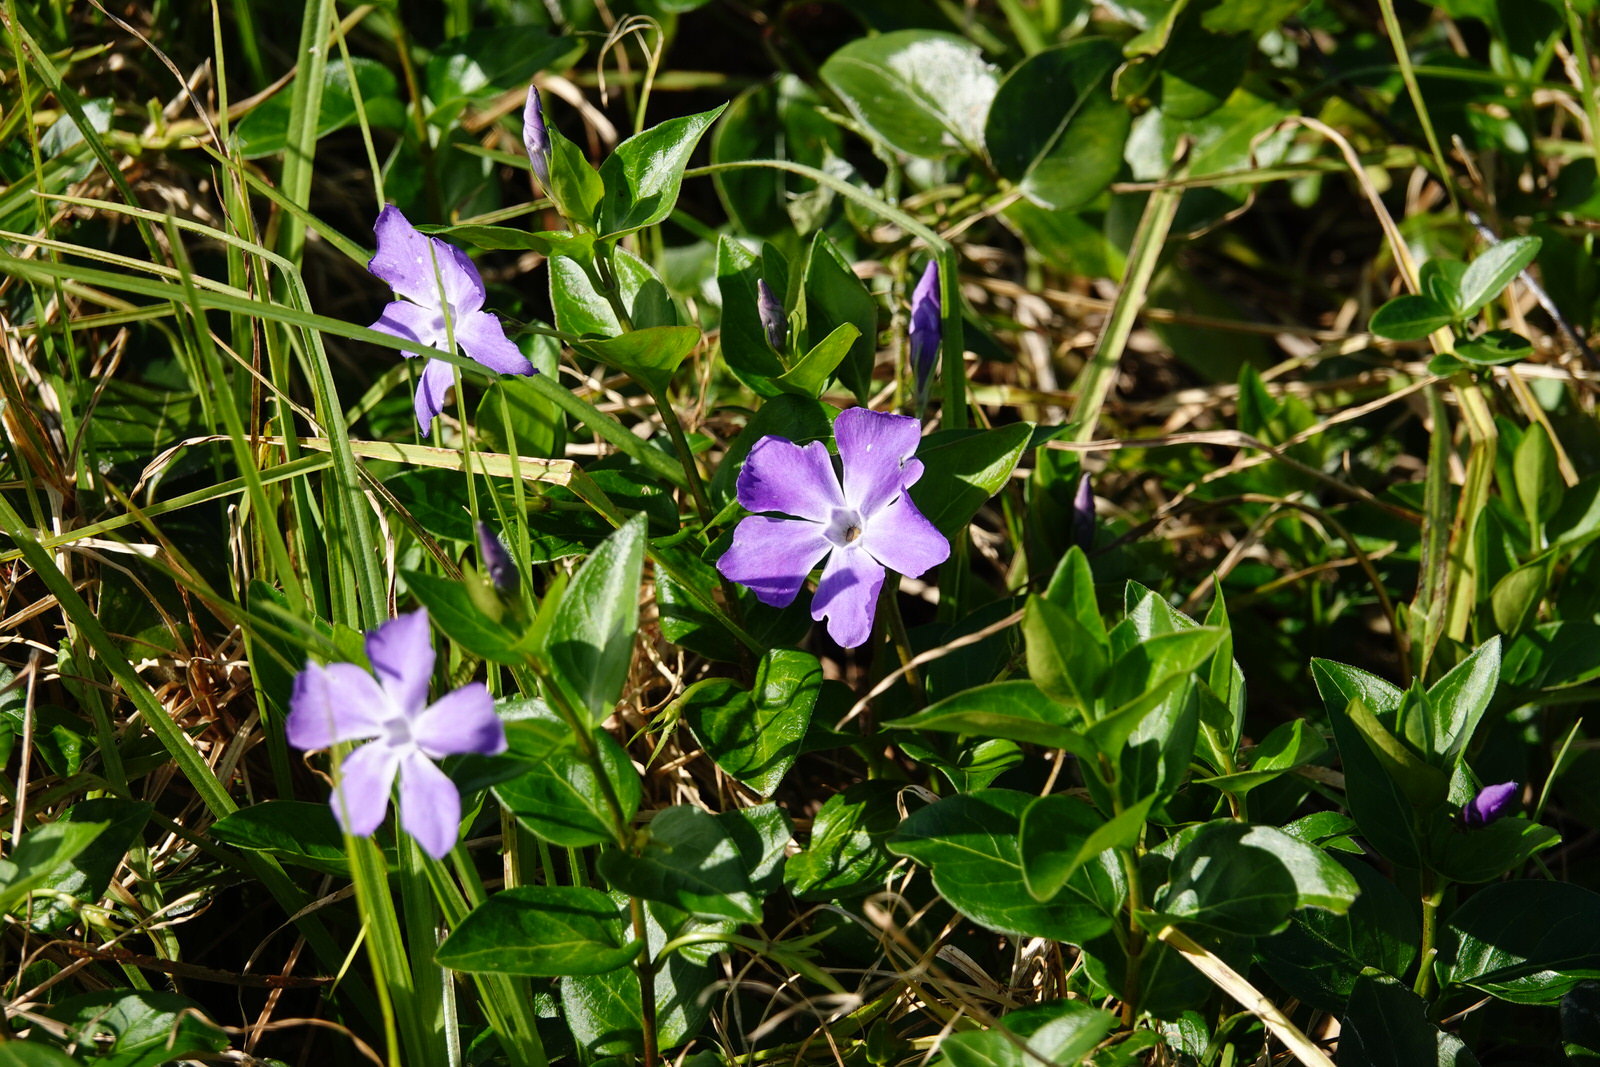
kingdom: Plantae
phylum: Tracheophyta
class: Magnoliopsida
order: Gentianales
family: Apocynaceae
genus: Vinca
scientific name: Vinca major
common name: Greater periwinkle
